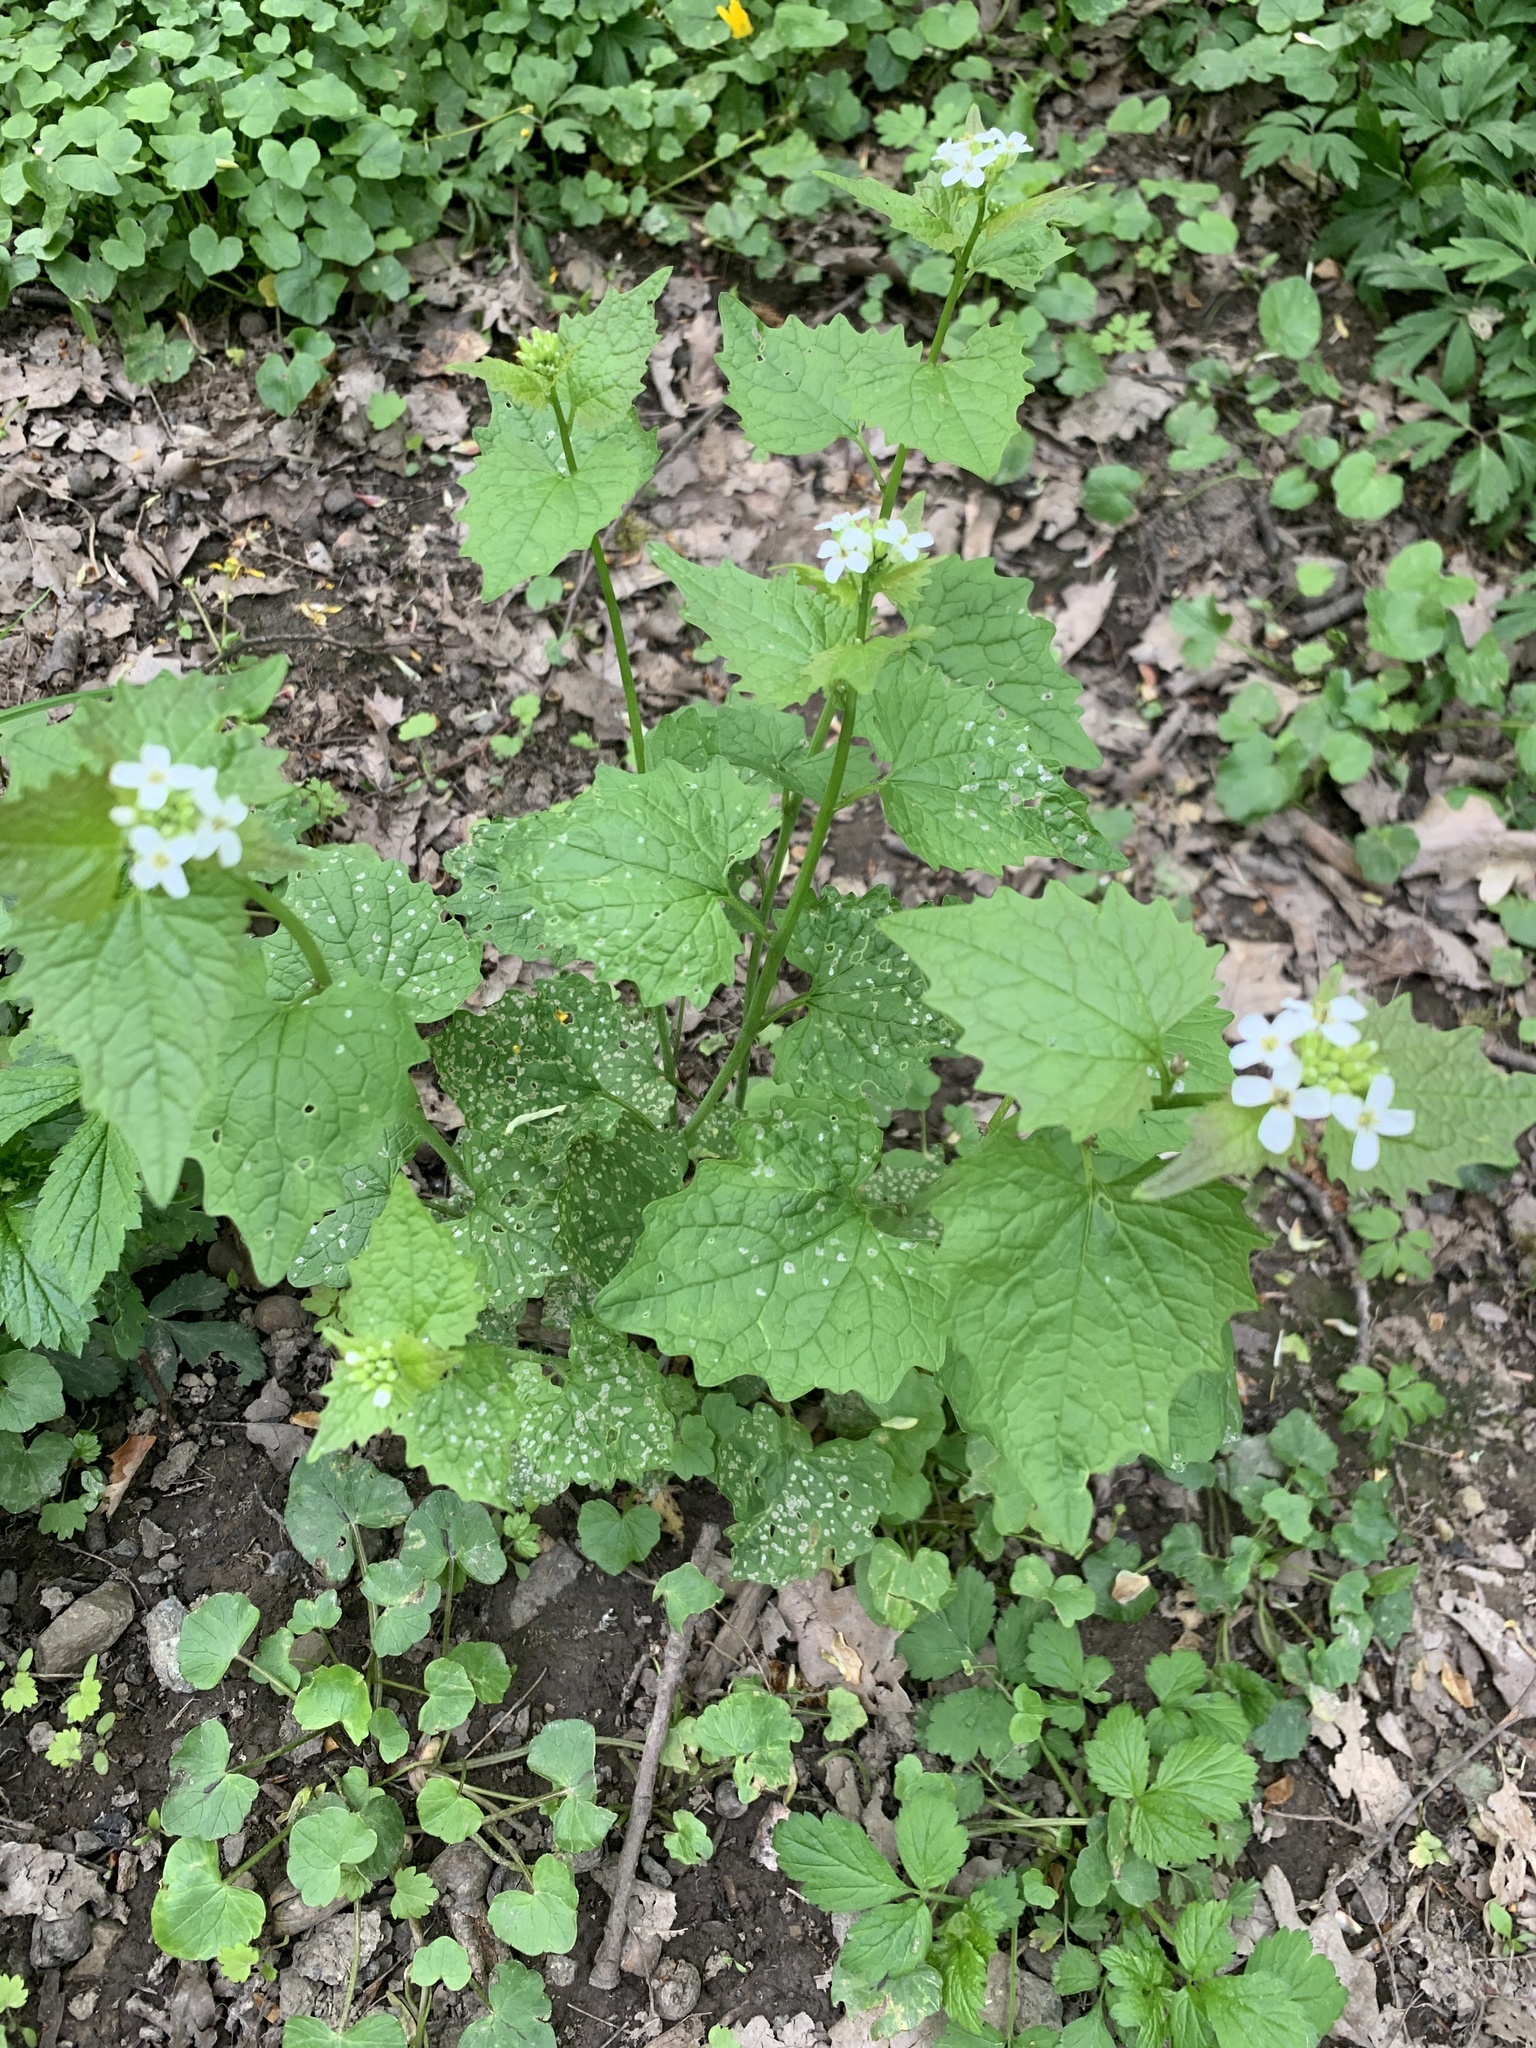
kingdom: Plantae
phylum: Tracheophyta
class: Magnoliopsida
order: Brassicales
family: Brassicaceae
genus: Alliaria
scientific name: Alliaria petiolata
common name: Garlic mustard
